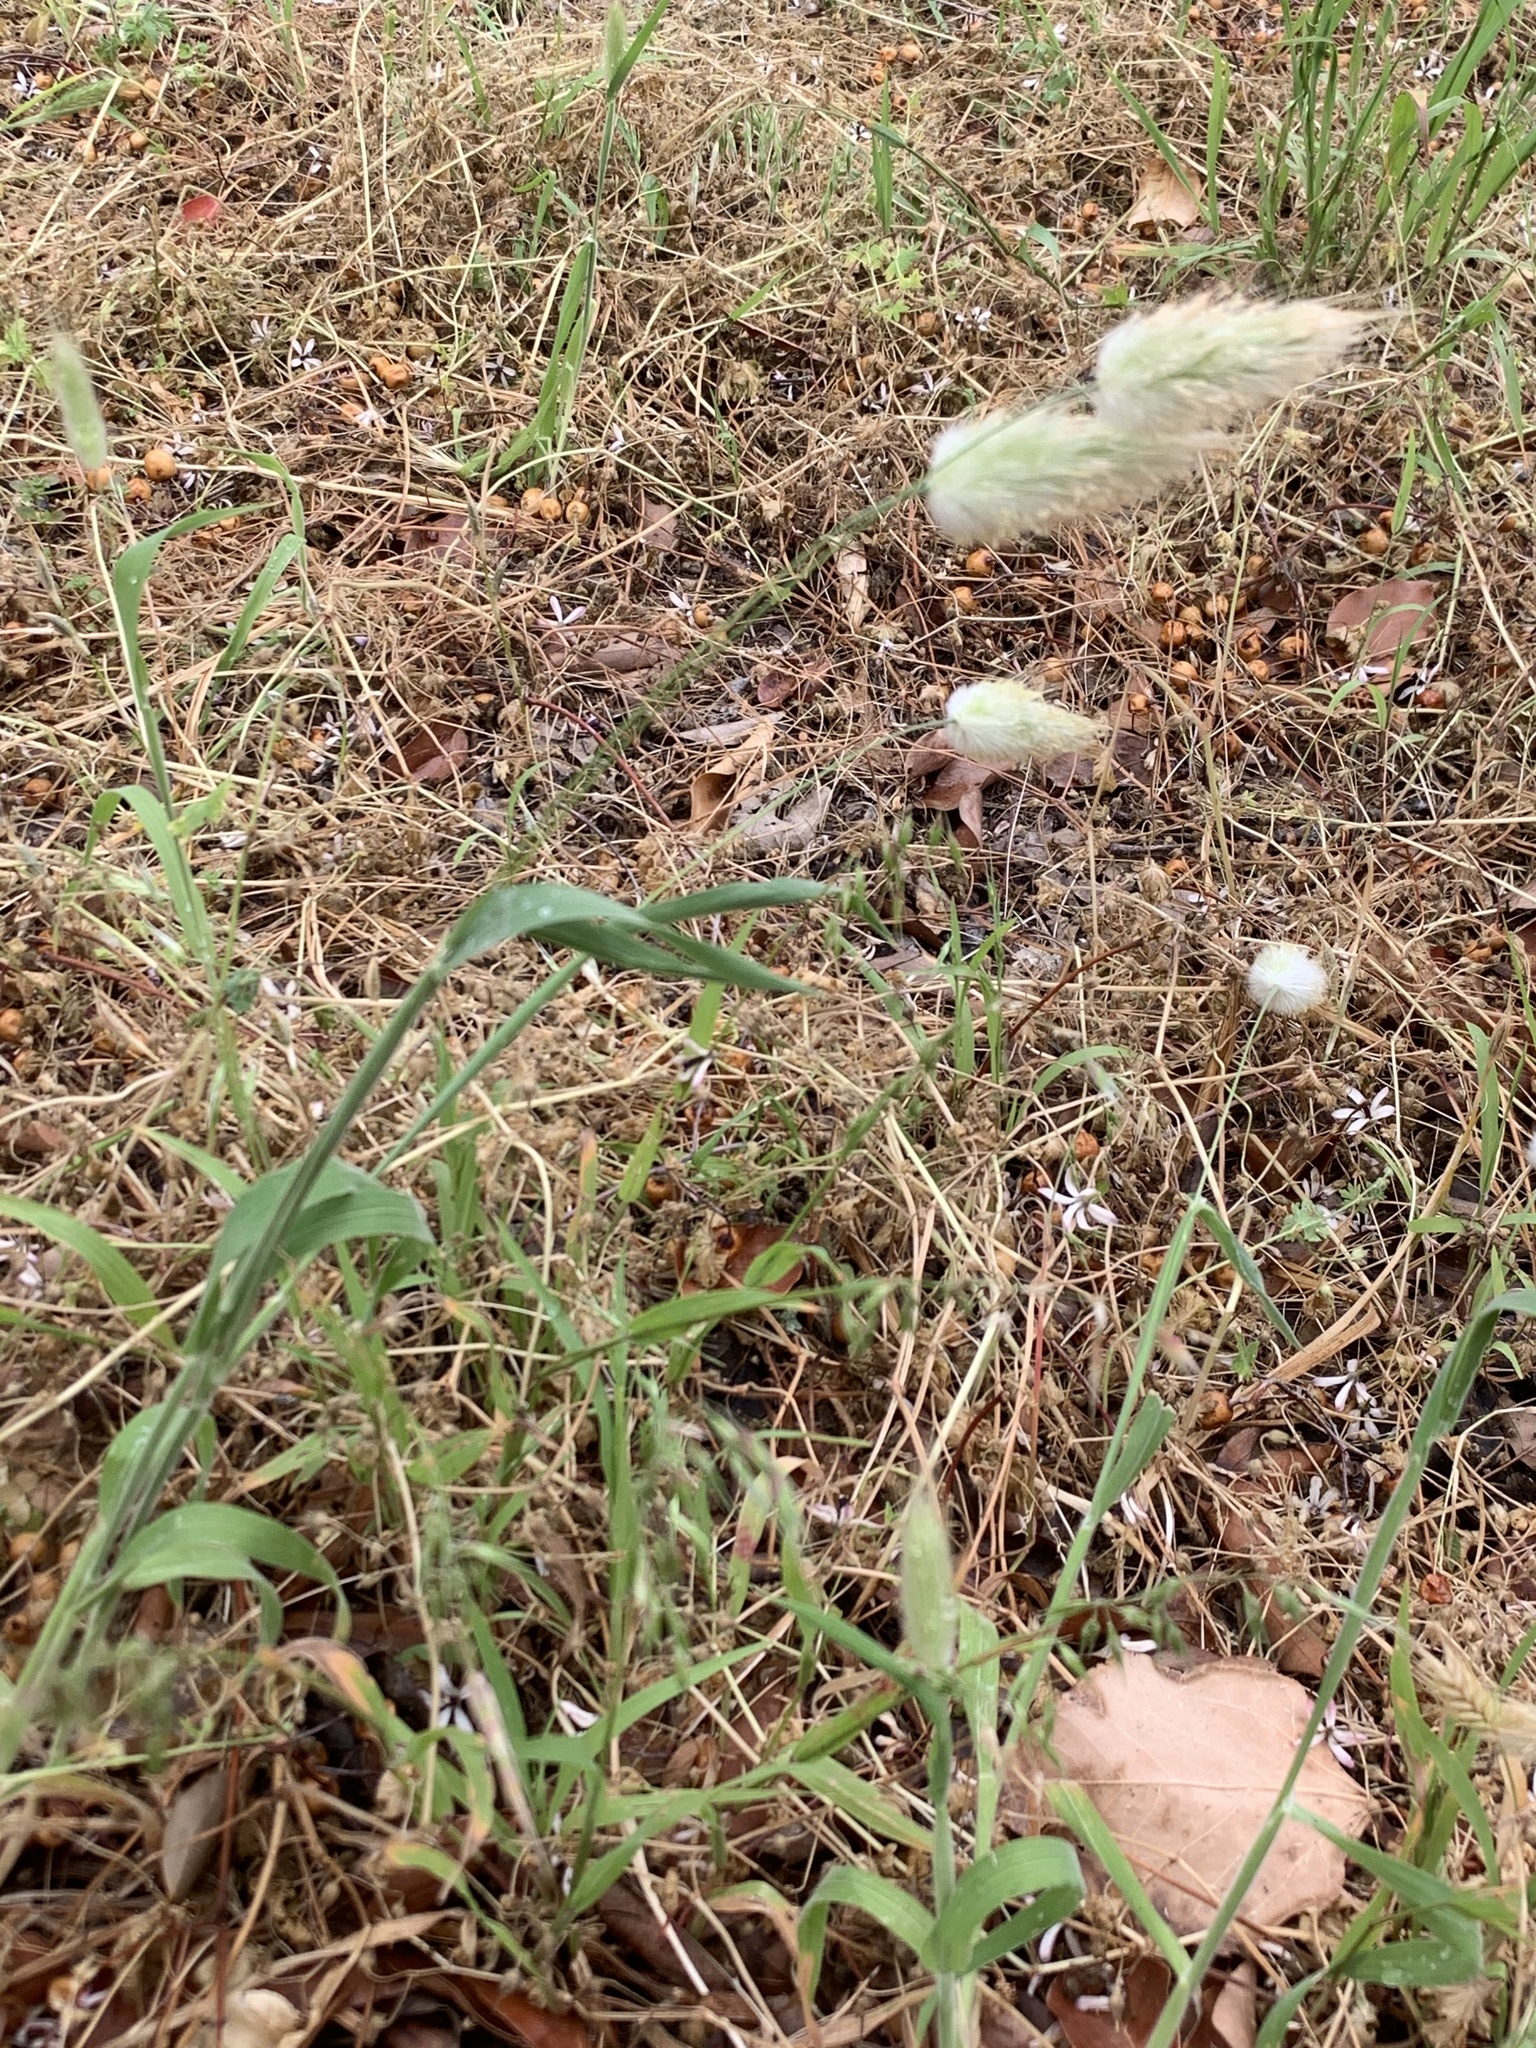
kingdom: Plantae
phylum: Tracheophyta
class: Liliopsida
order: Poales
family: Poaceae
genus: Lagurus
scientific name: Lagurus ovatus
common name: Hare's-tail
